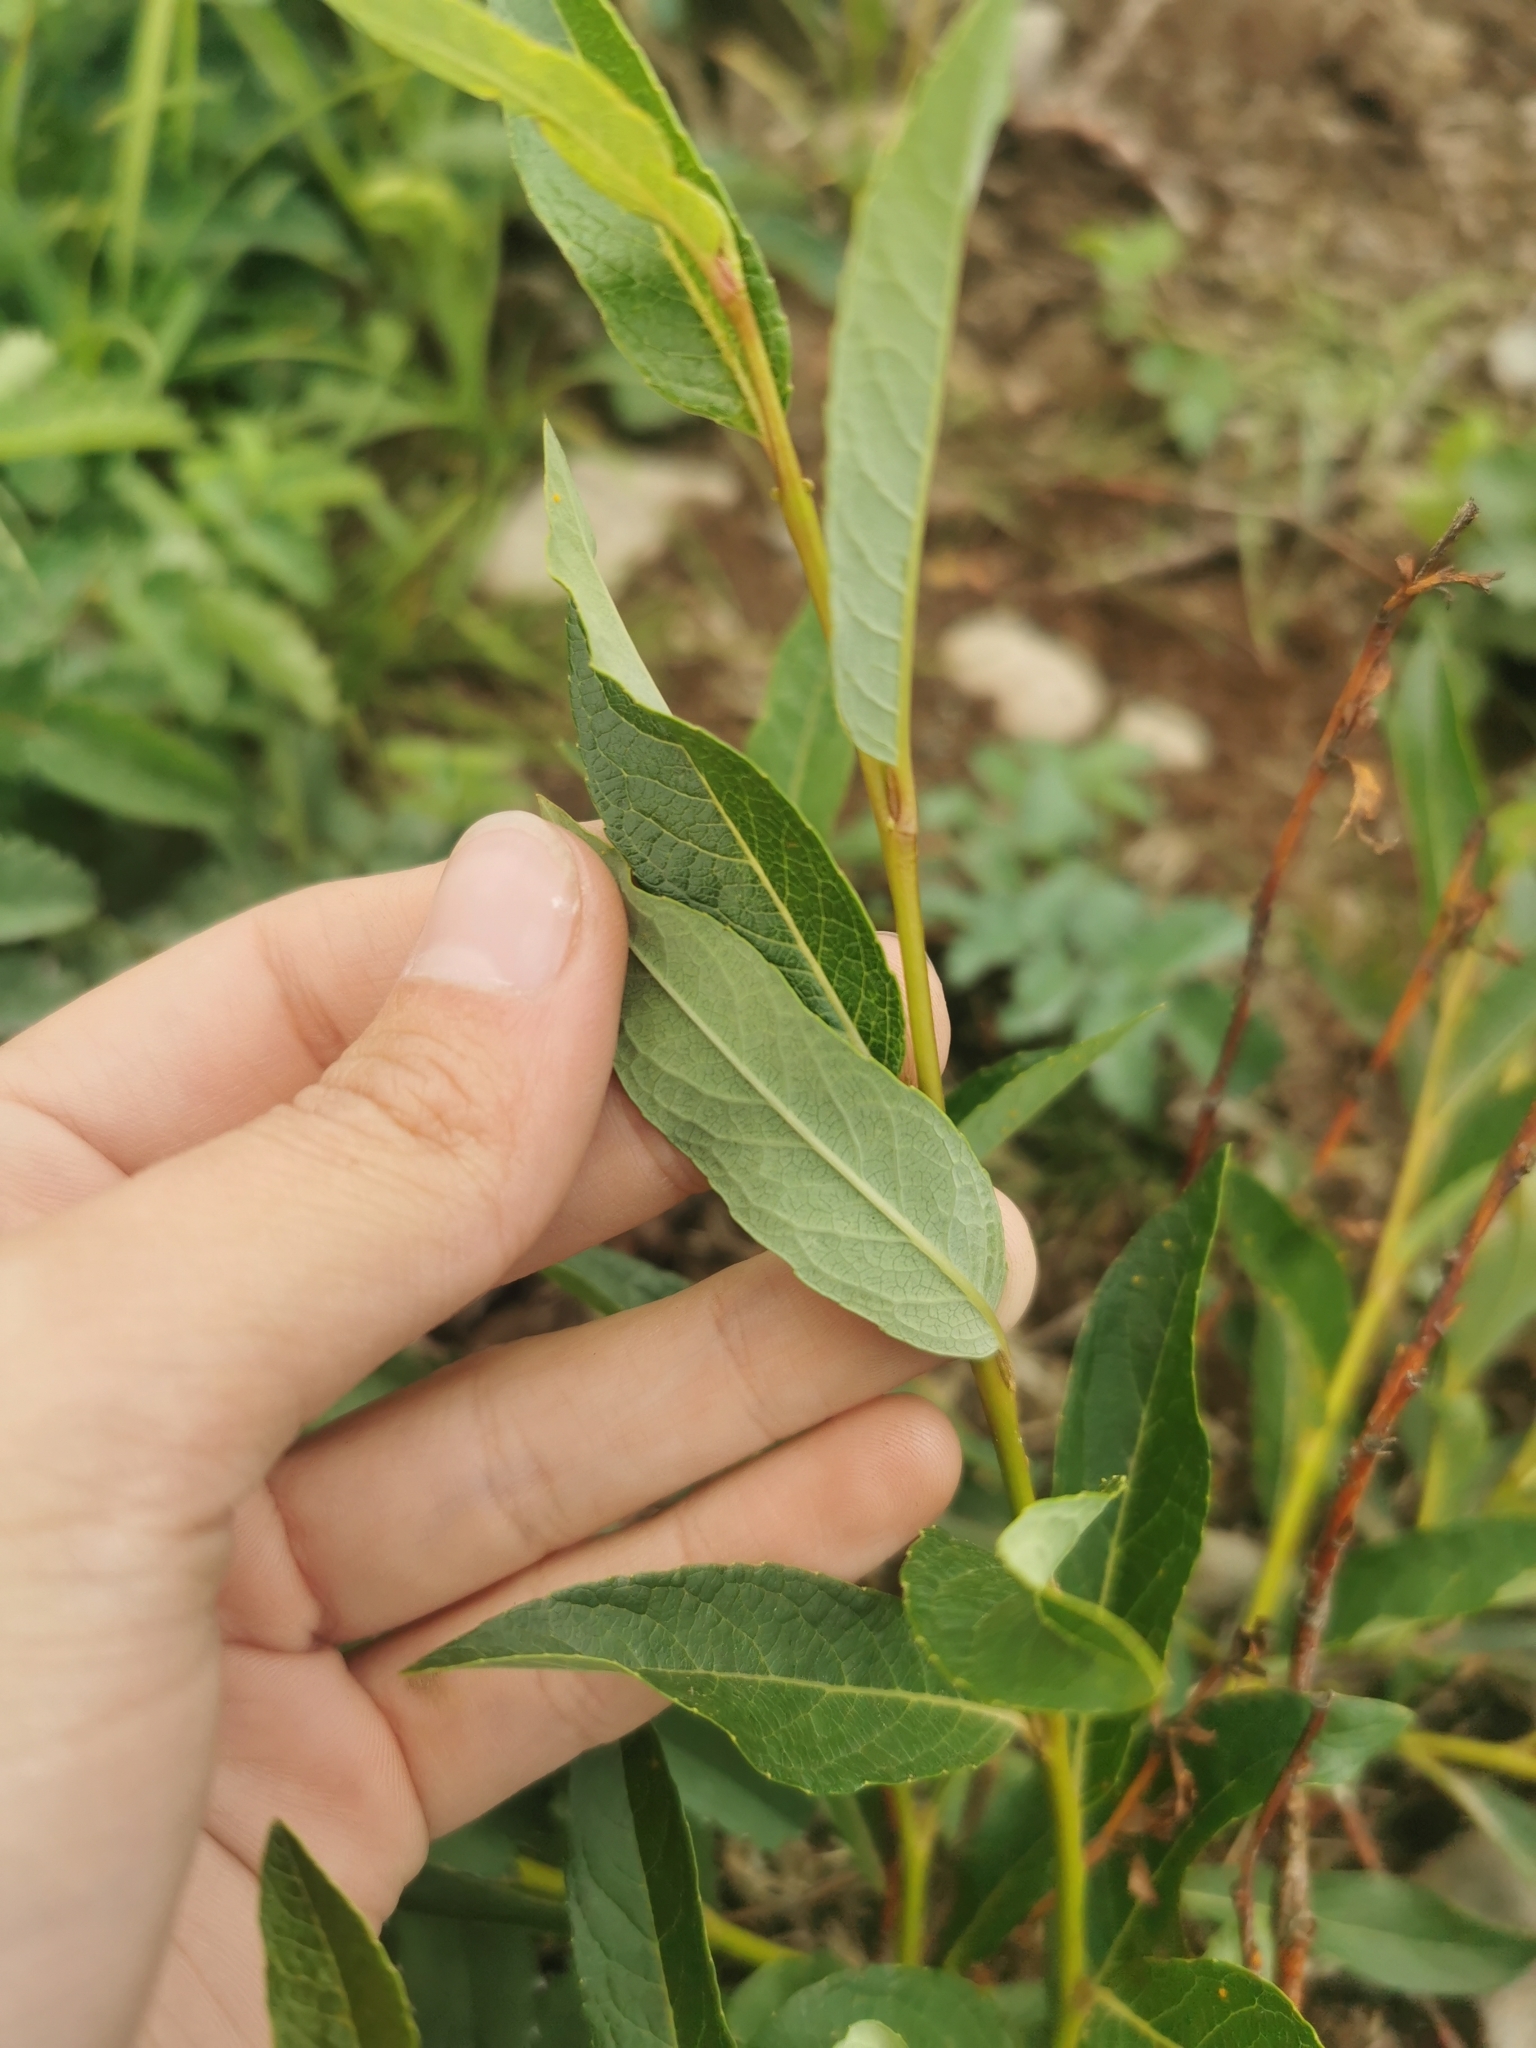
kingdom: Plantae
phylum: Tracheophyta
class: Magnoliopsida
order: Malpighiales
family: Salicaceae
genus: Salix
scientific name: Salix pulchra
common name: Diamond-leaved willow
